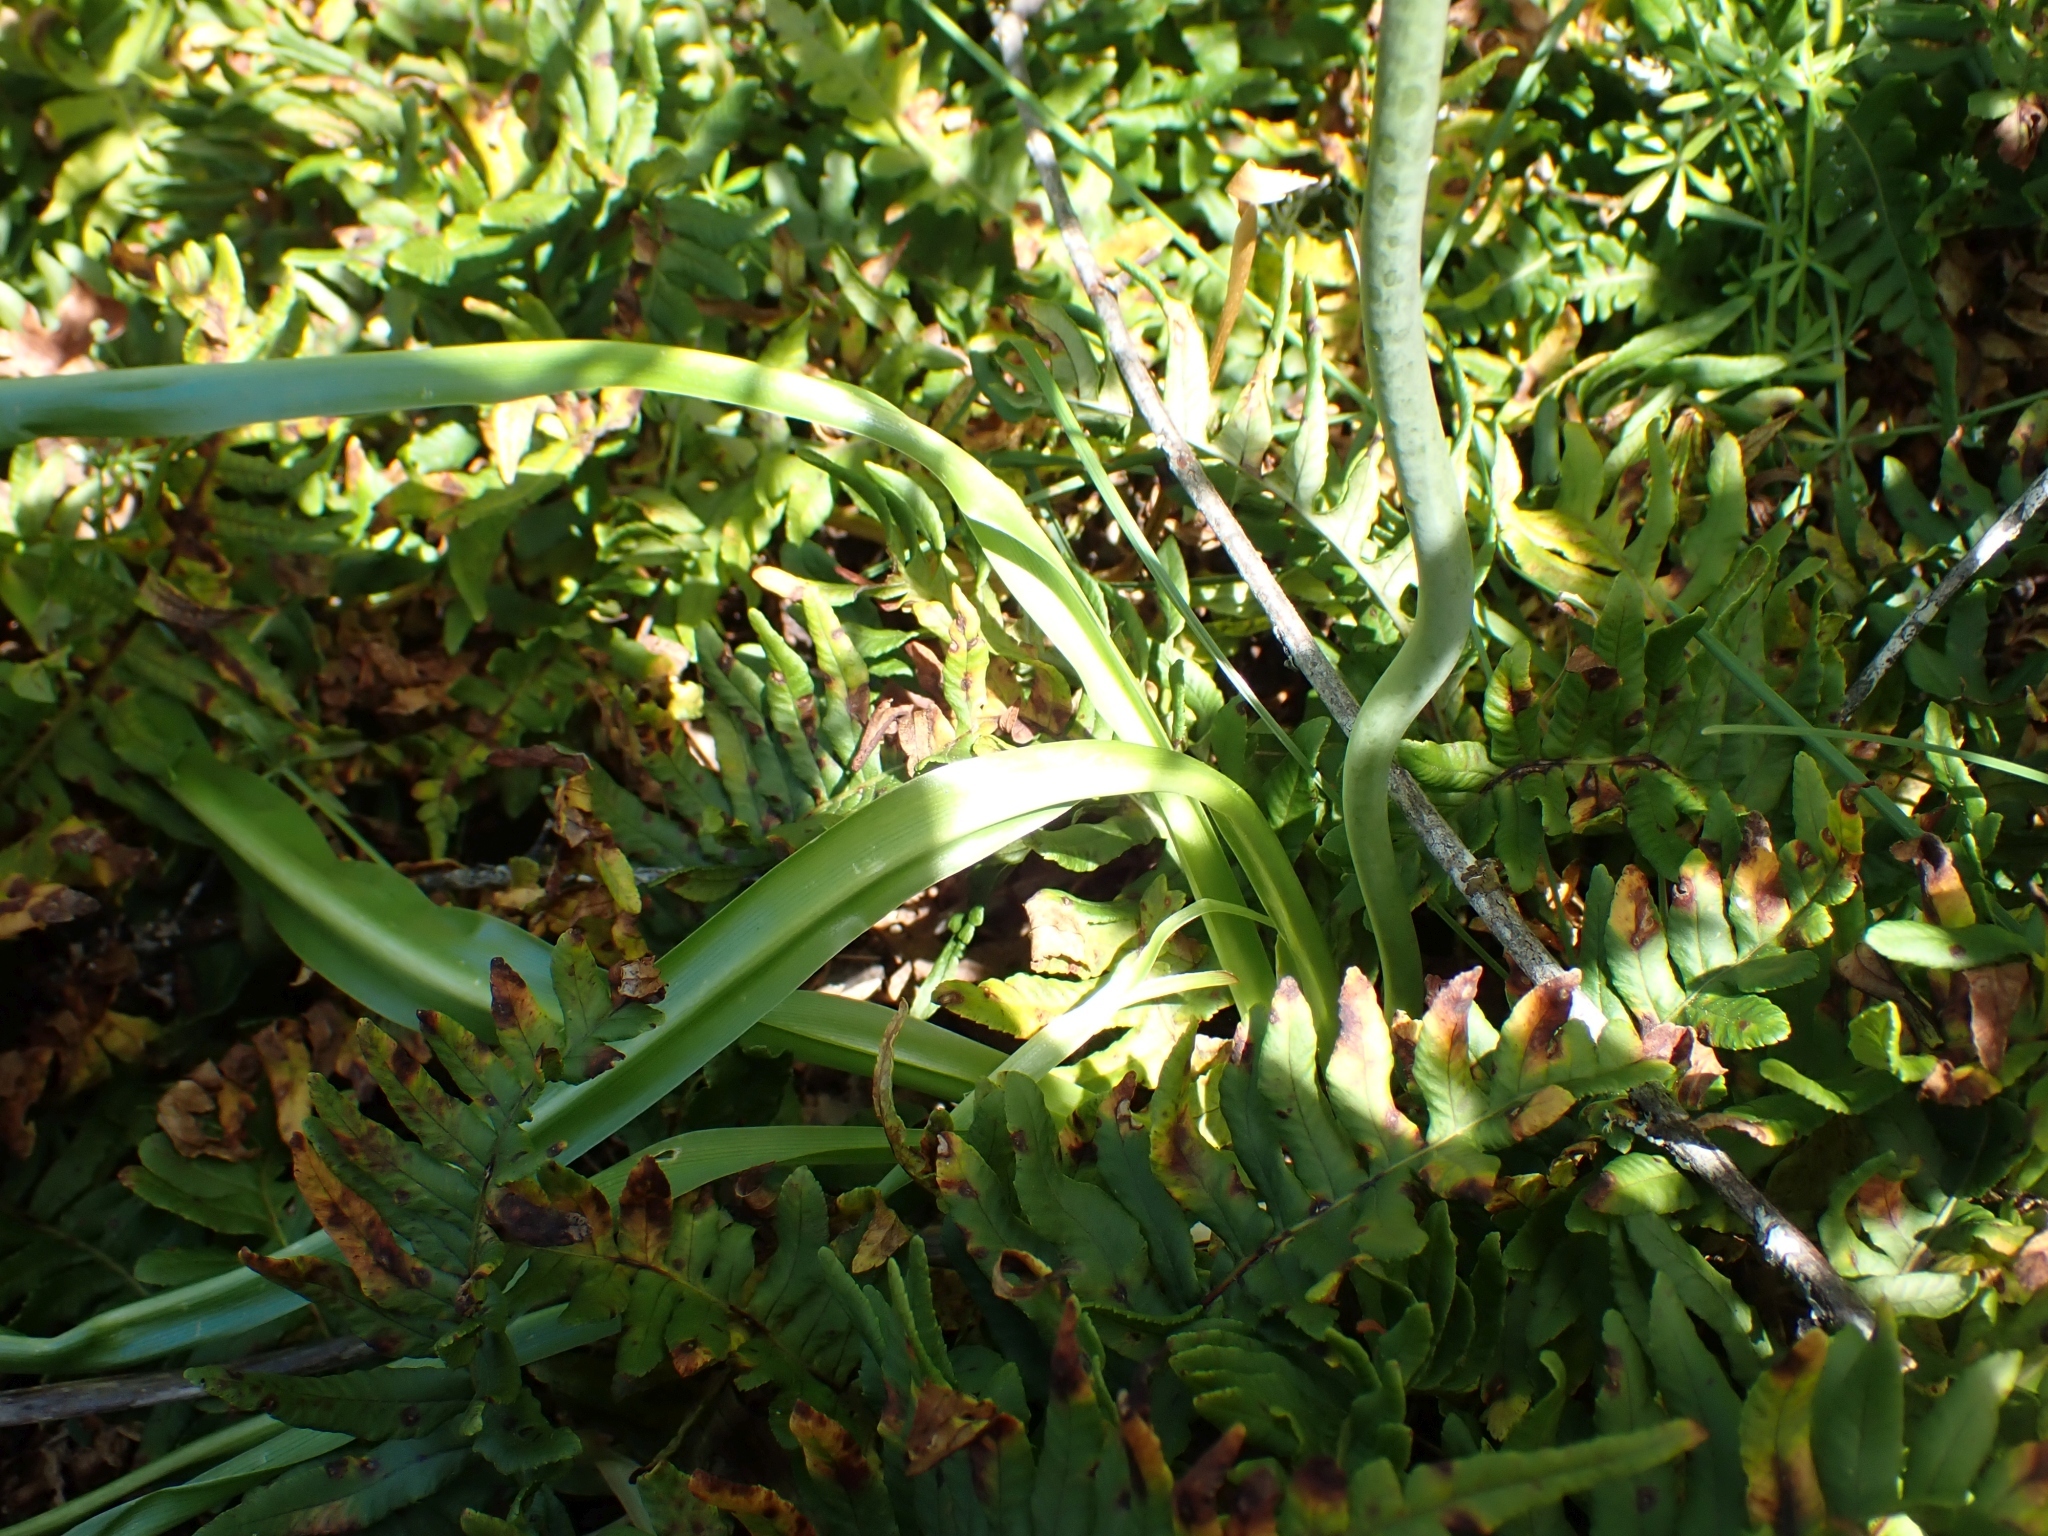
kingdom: Plantae
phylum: Tracheophyta
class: Liliopsida
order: Asparagales
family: Asparagaceae
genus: Camassia
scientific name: Camassia leichtlinii
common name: Leichtlin's camas
